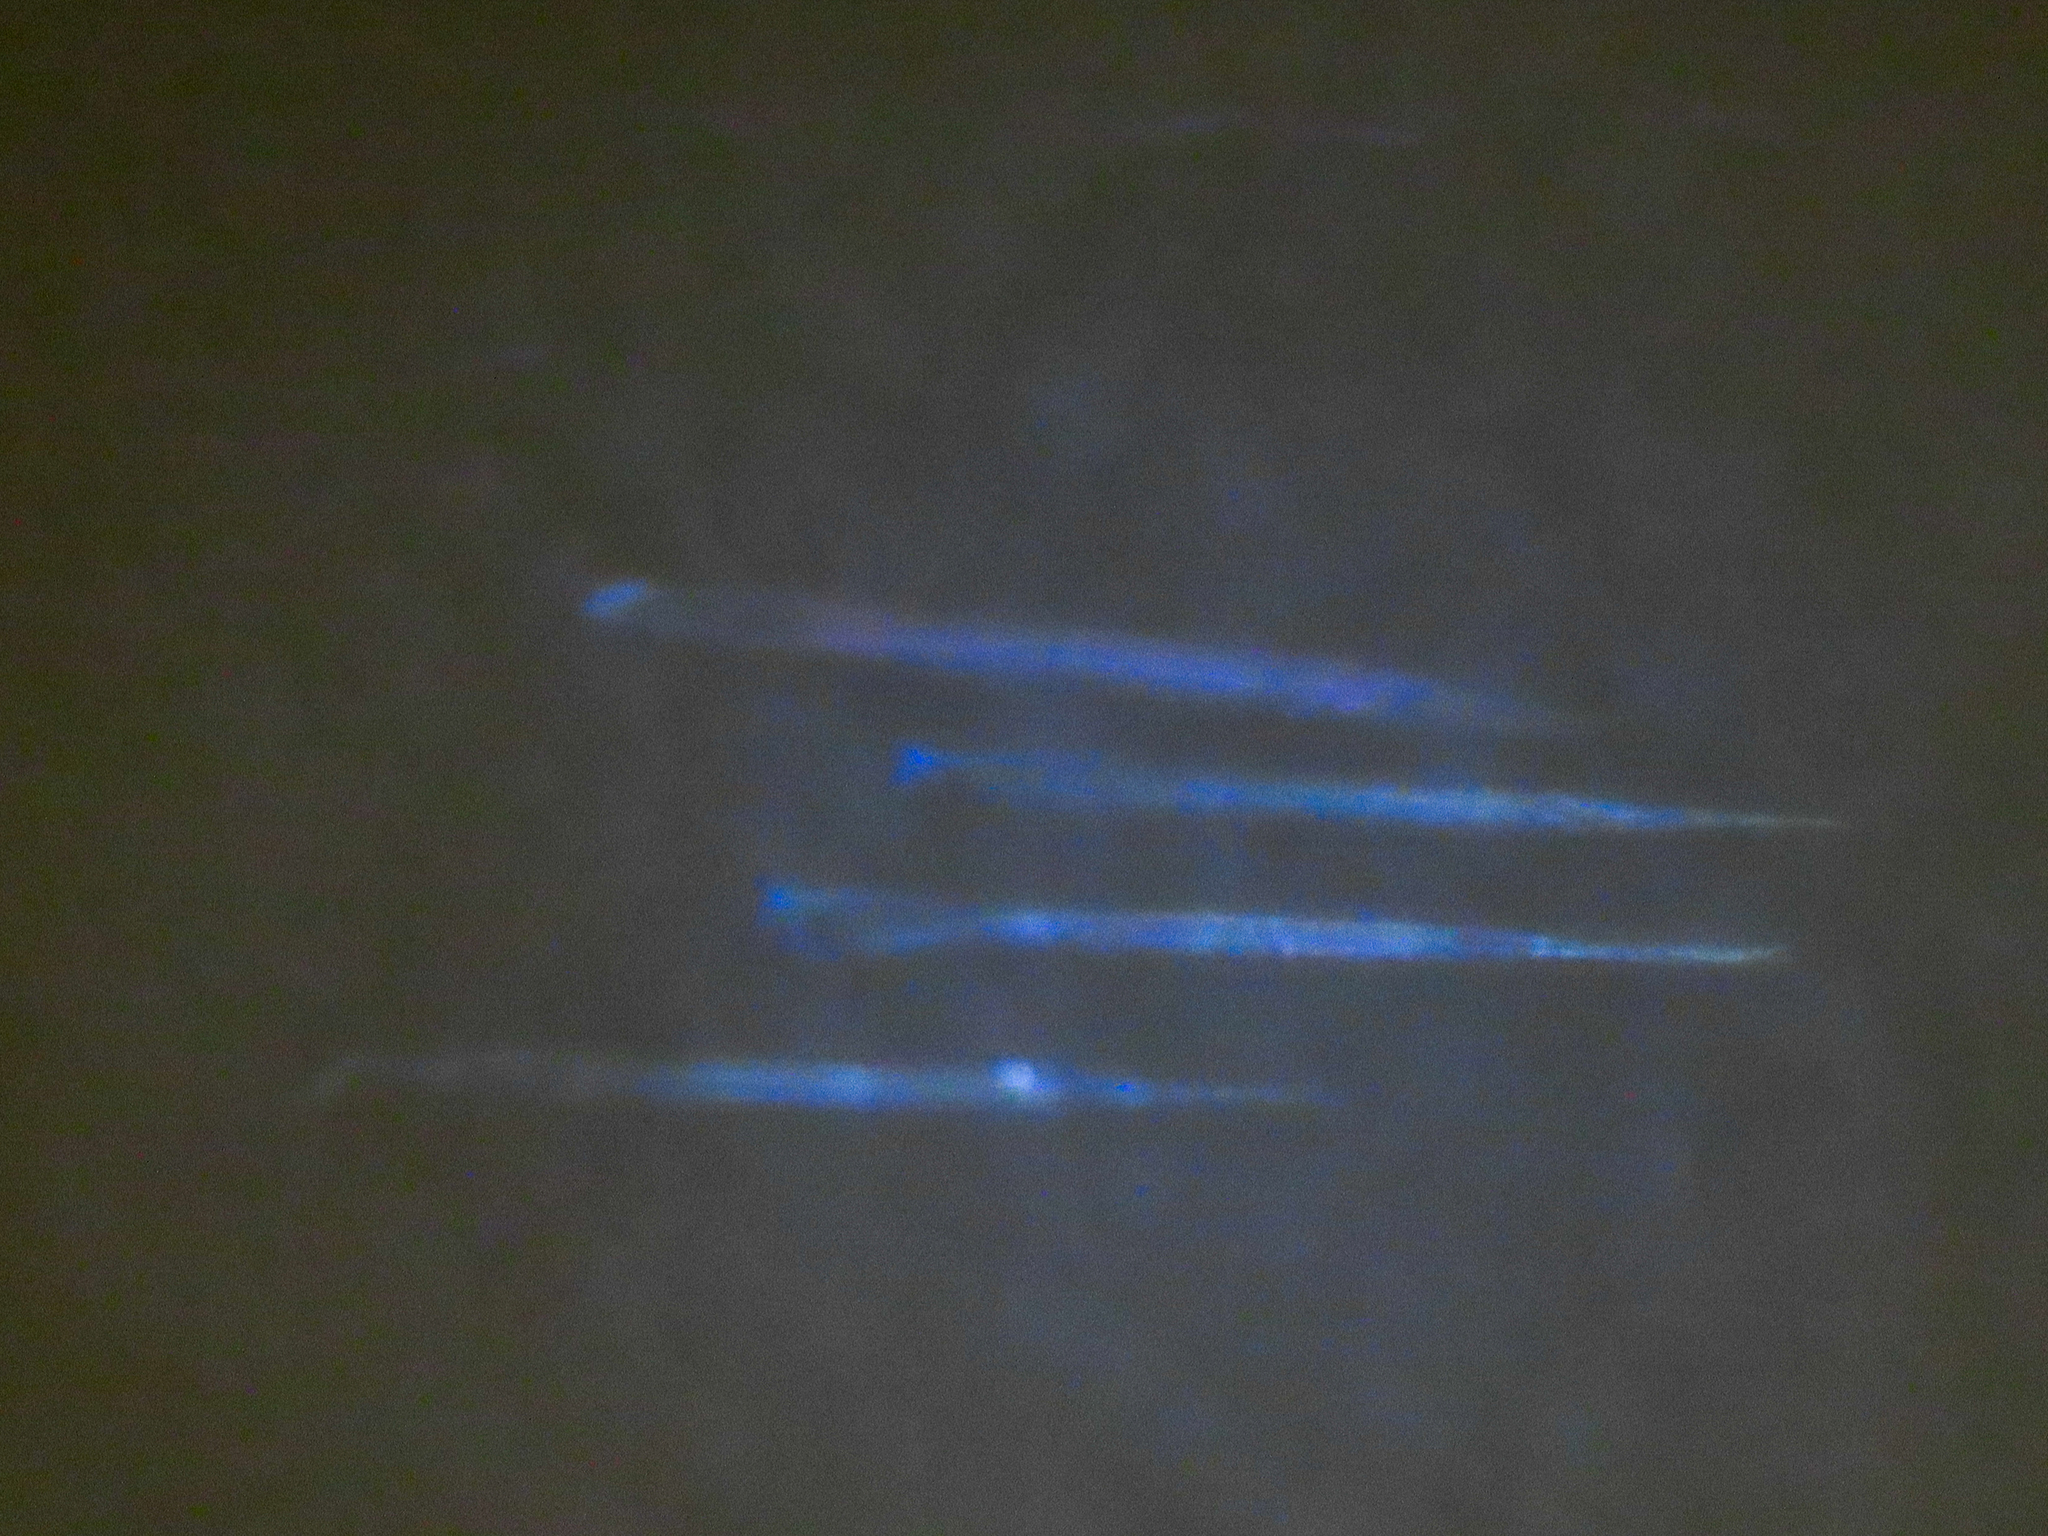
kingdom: Animalia
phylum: Chordata
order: Beloniformes
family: Belonidae
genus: Strongylura
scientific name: Strongylura marina
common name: Atlantic needlefish
